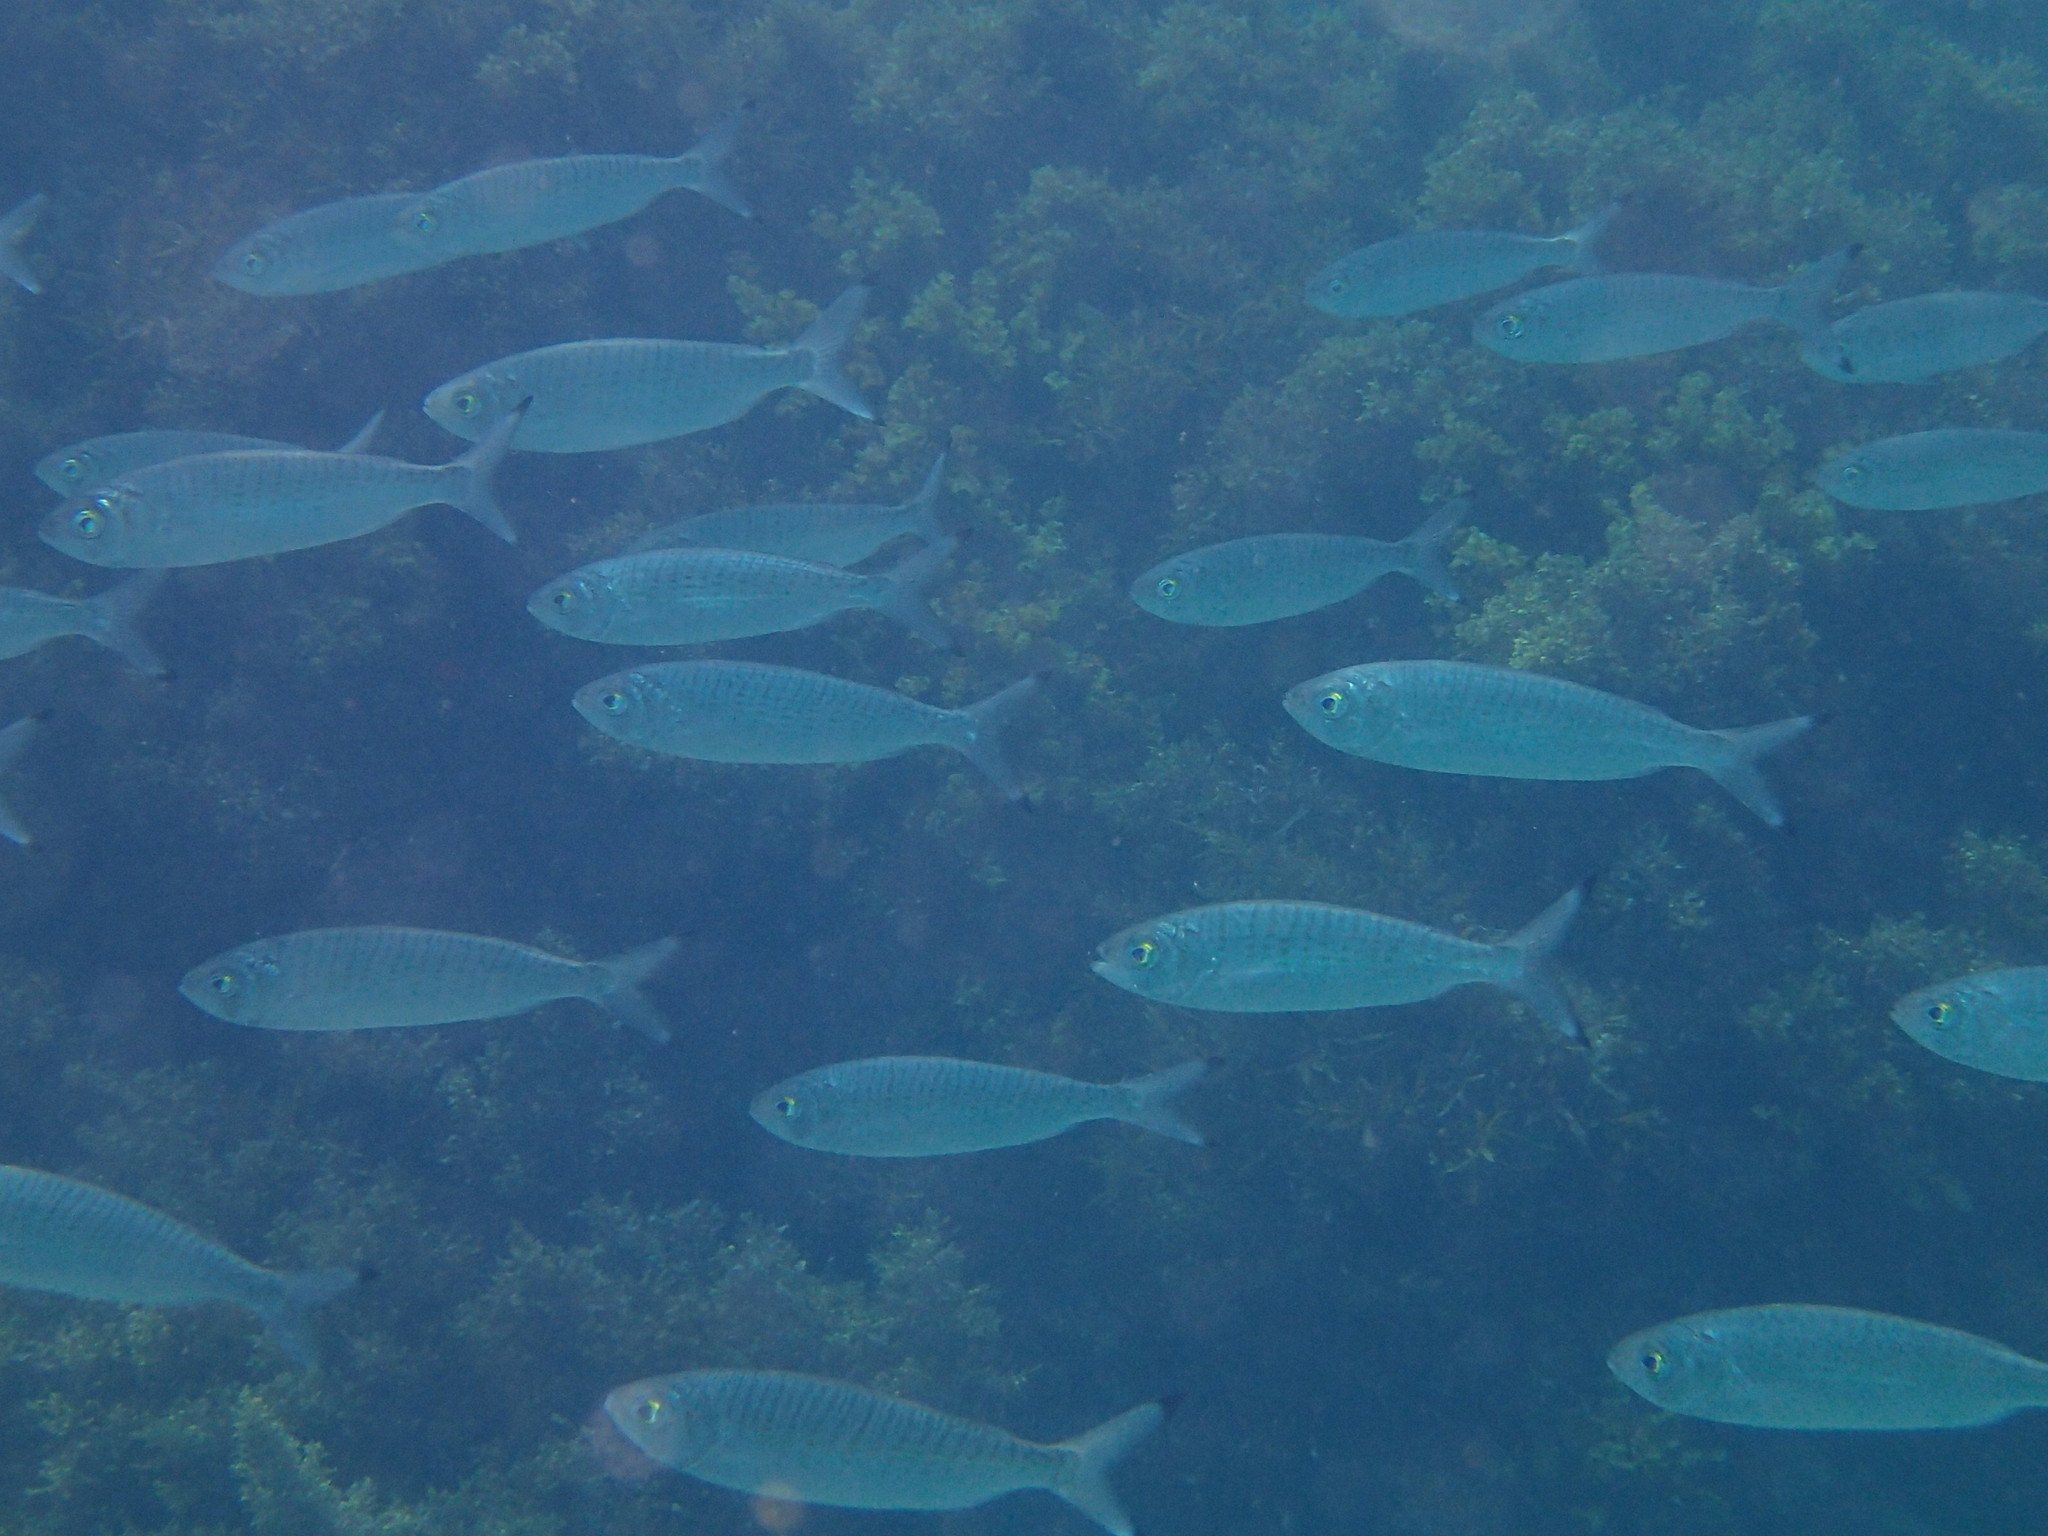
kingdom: Animalia
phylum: Chordata
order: Perciformes
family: Arripidae
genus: Arripis
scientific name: Arripis georgianus
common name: Australian herring
